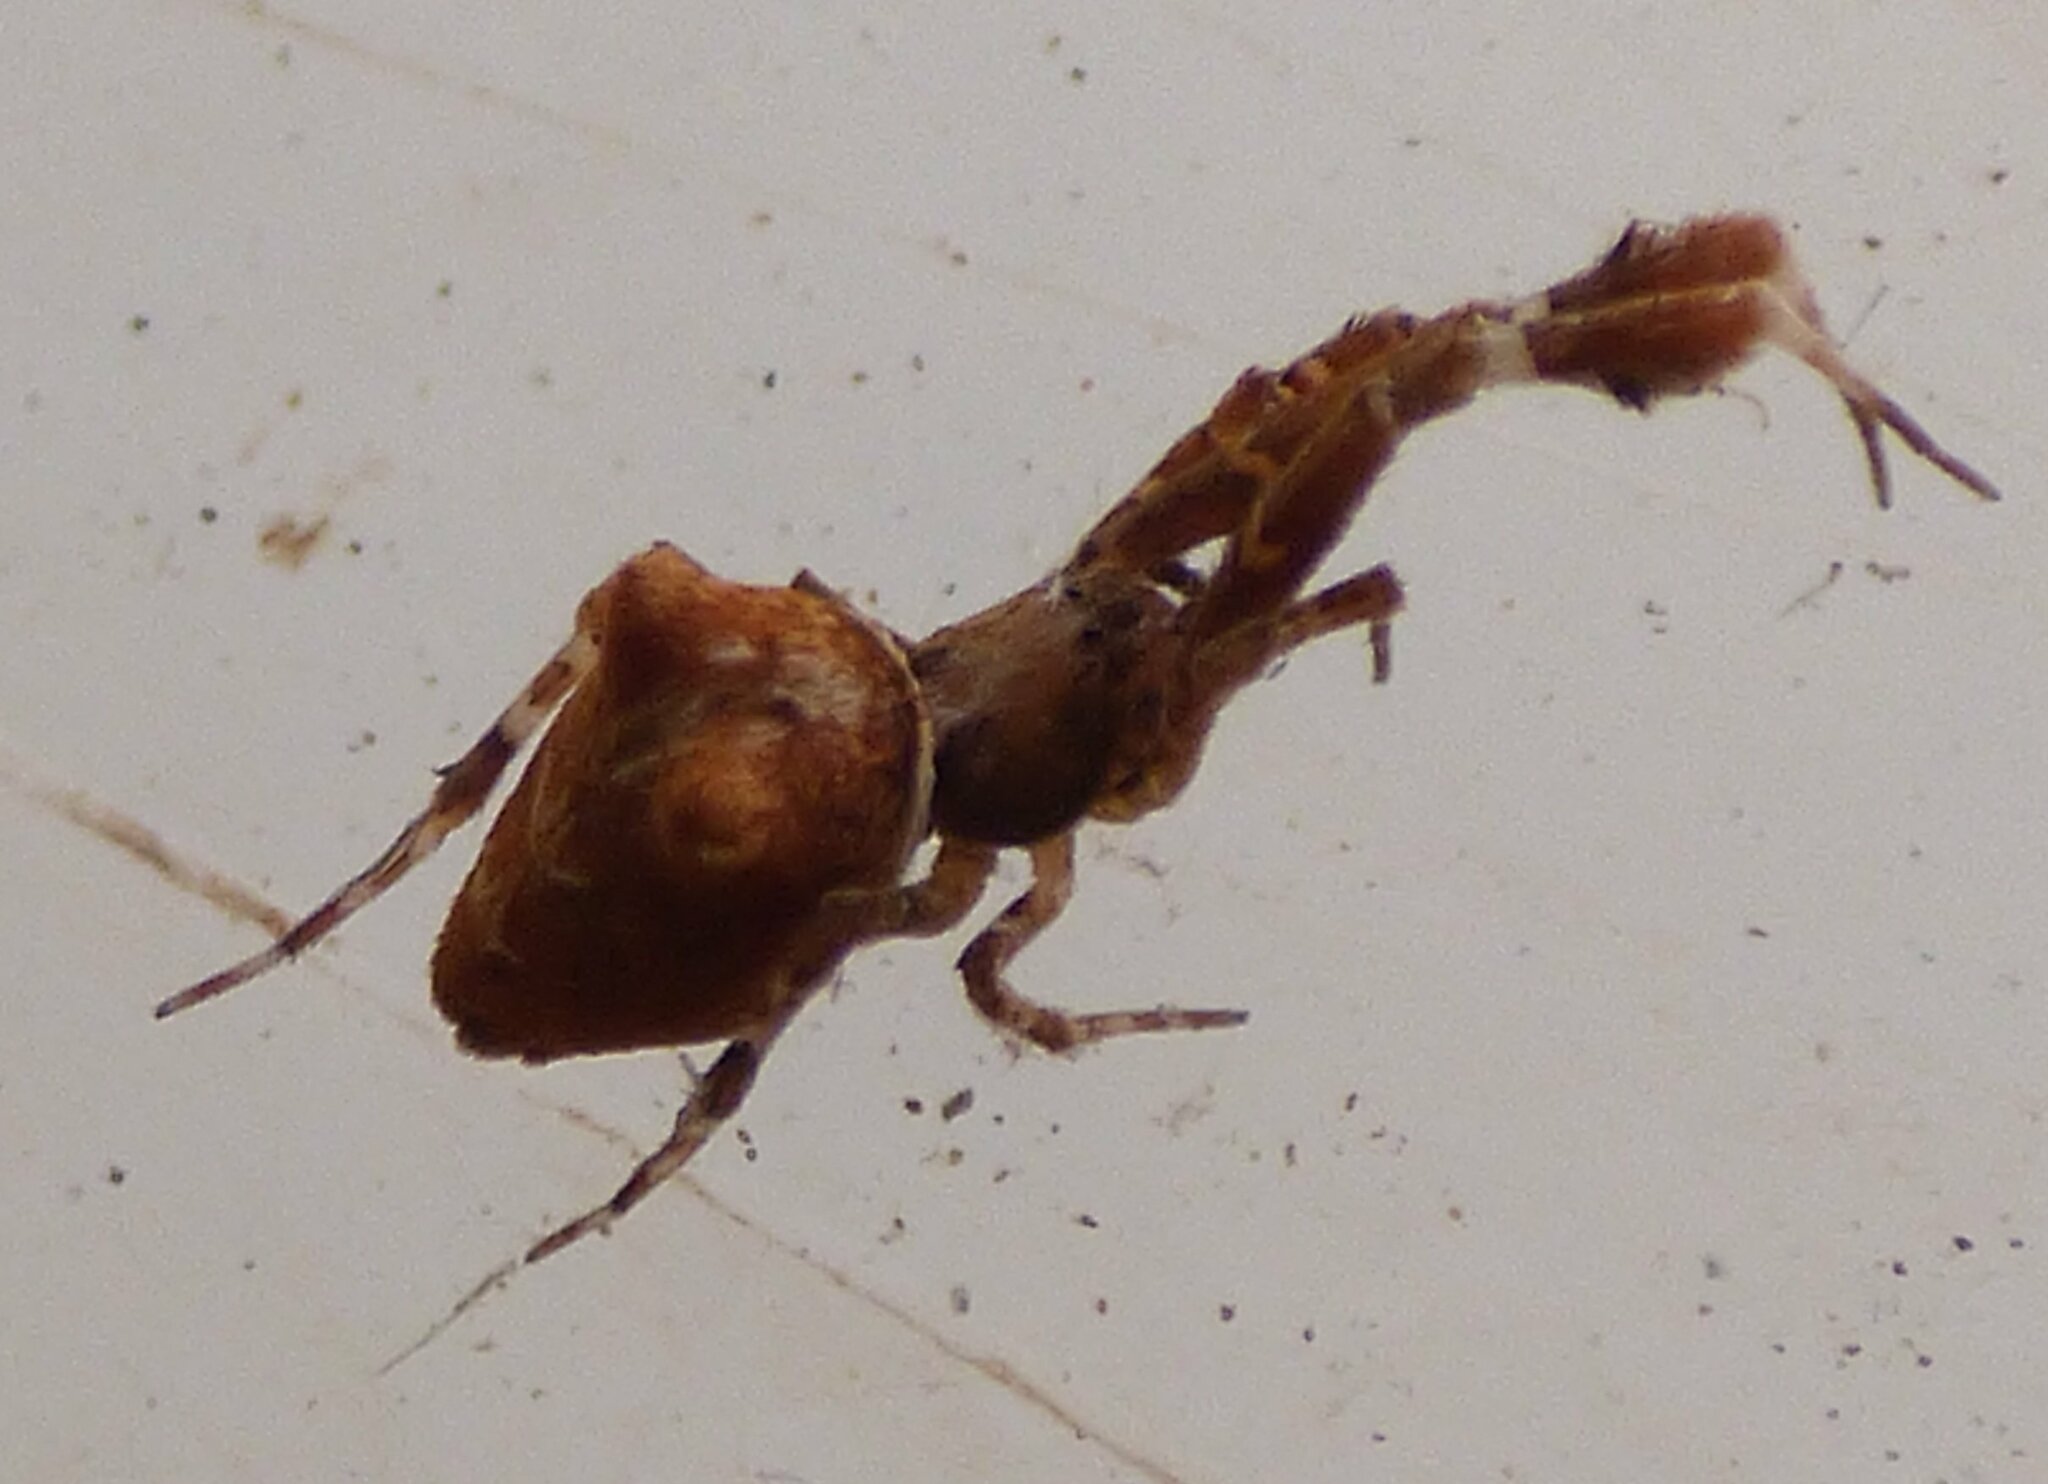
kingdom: Animalia
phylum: Arthropoda
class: Arachnida
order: Araneae
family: Uloboridae
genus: Uloborus
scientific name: Uloborus plumipes
